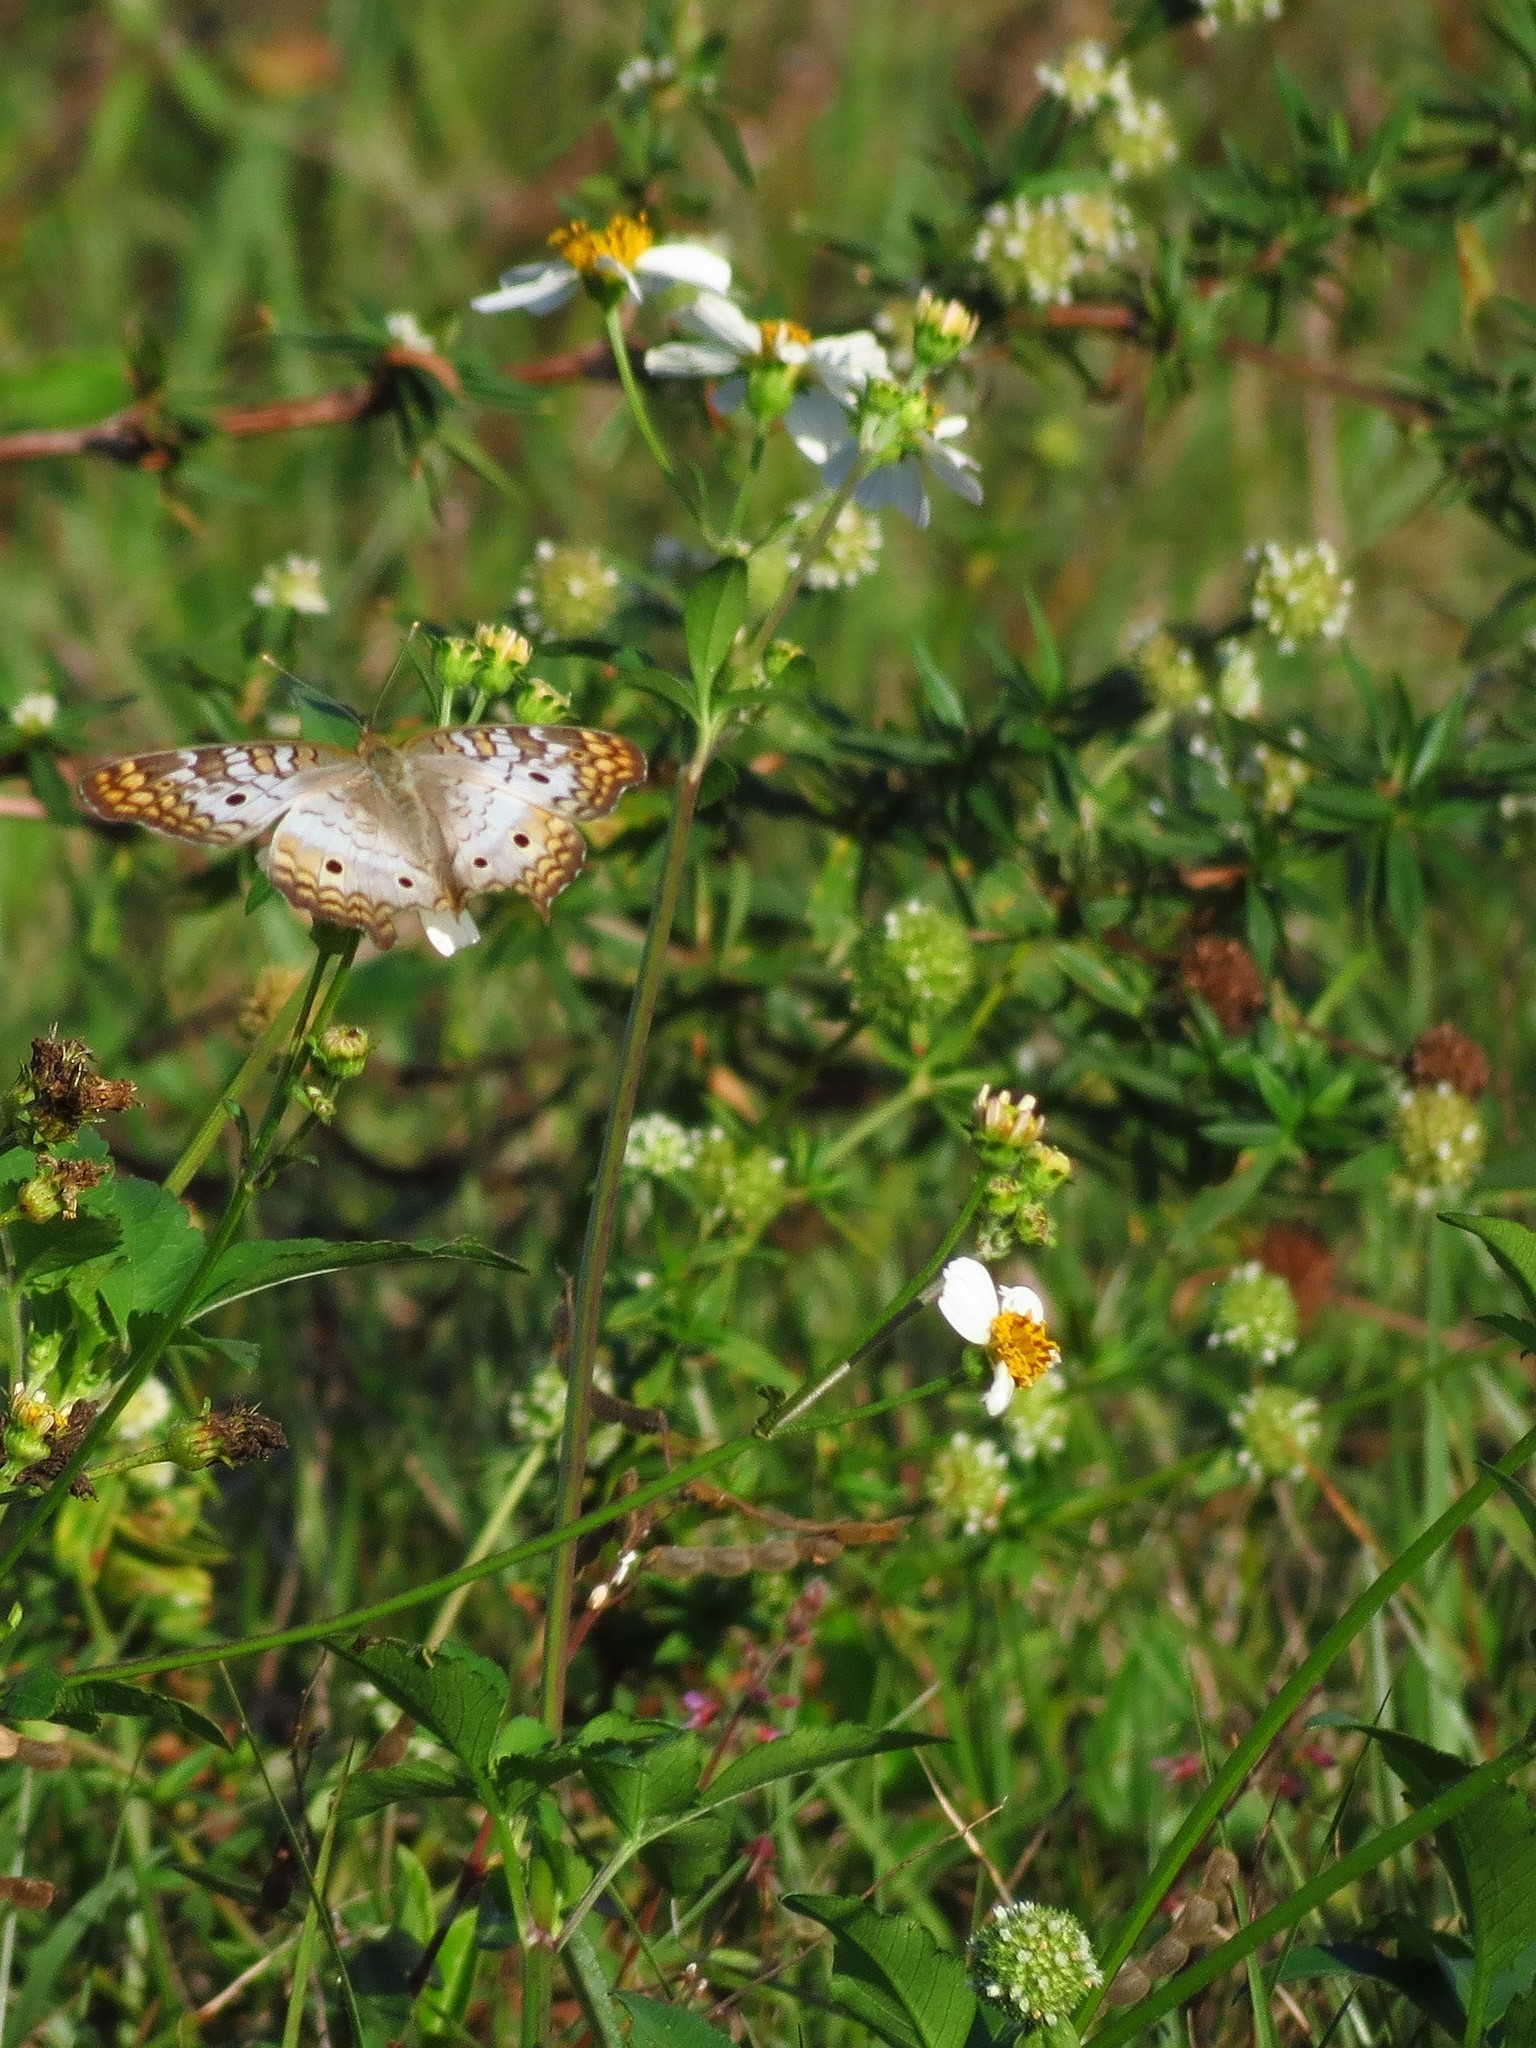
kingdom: Plantae
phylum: Tracheophyta
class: Magnoliopsida
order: Asterales
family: Asteraceae
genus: Bidens
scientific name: Bidens alba
